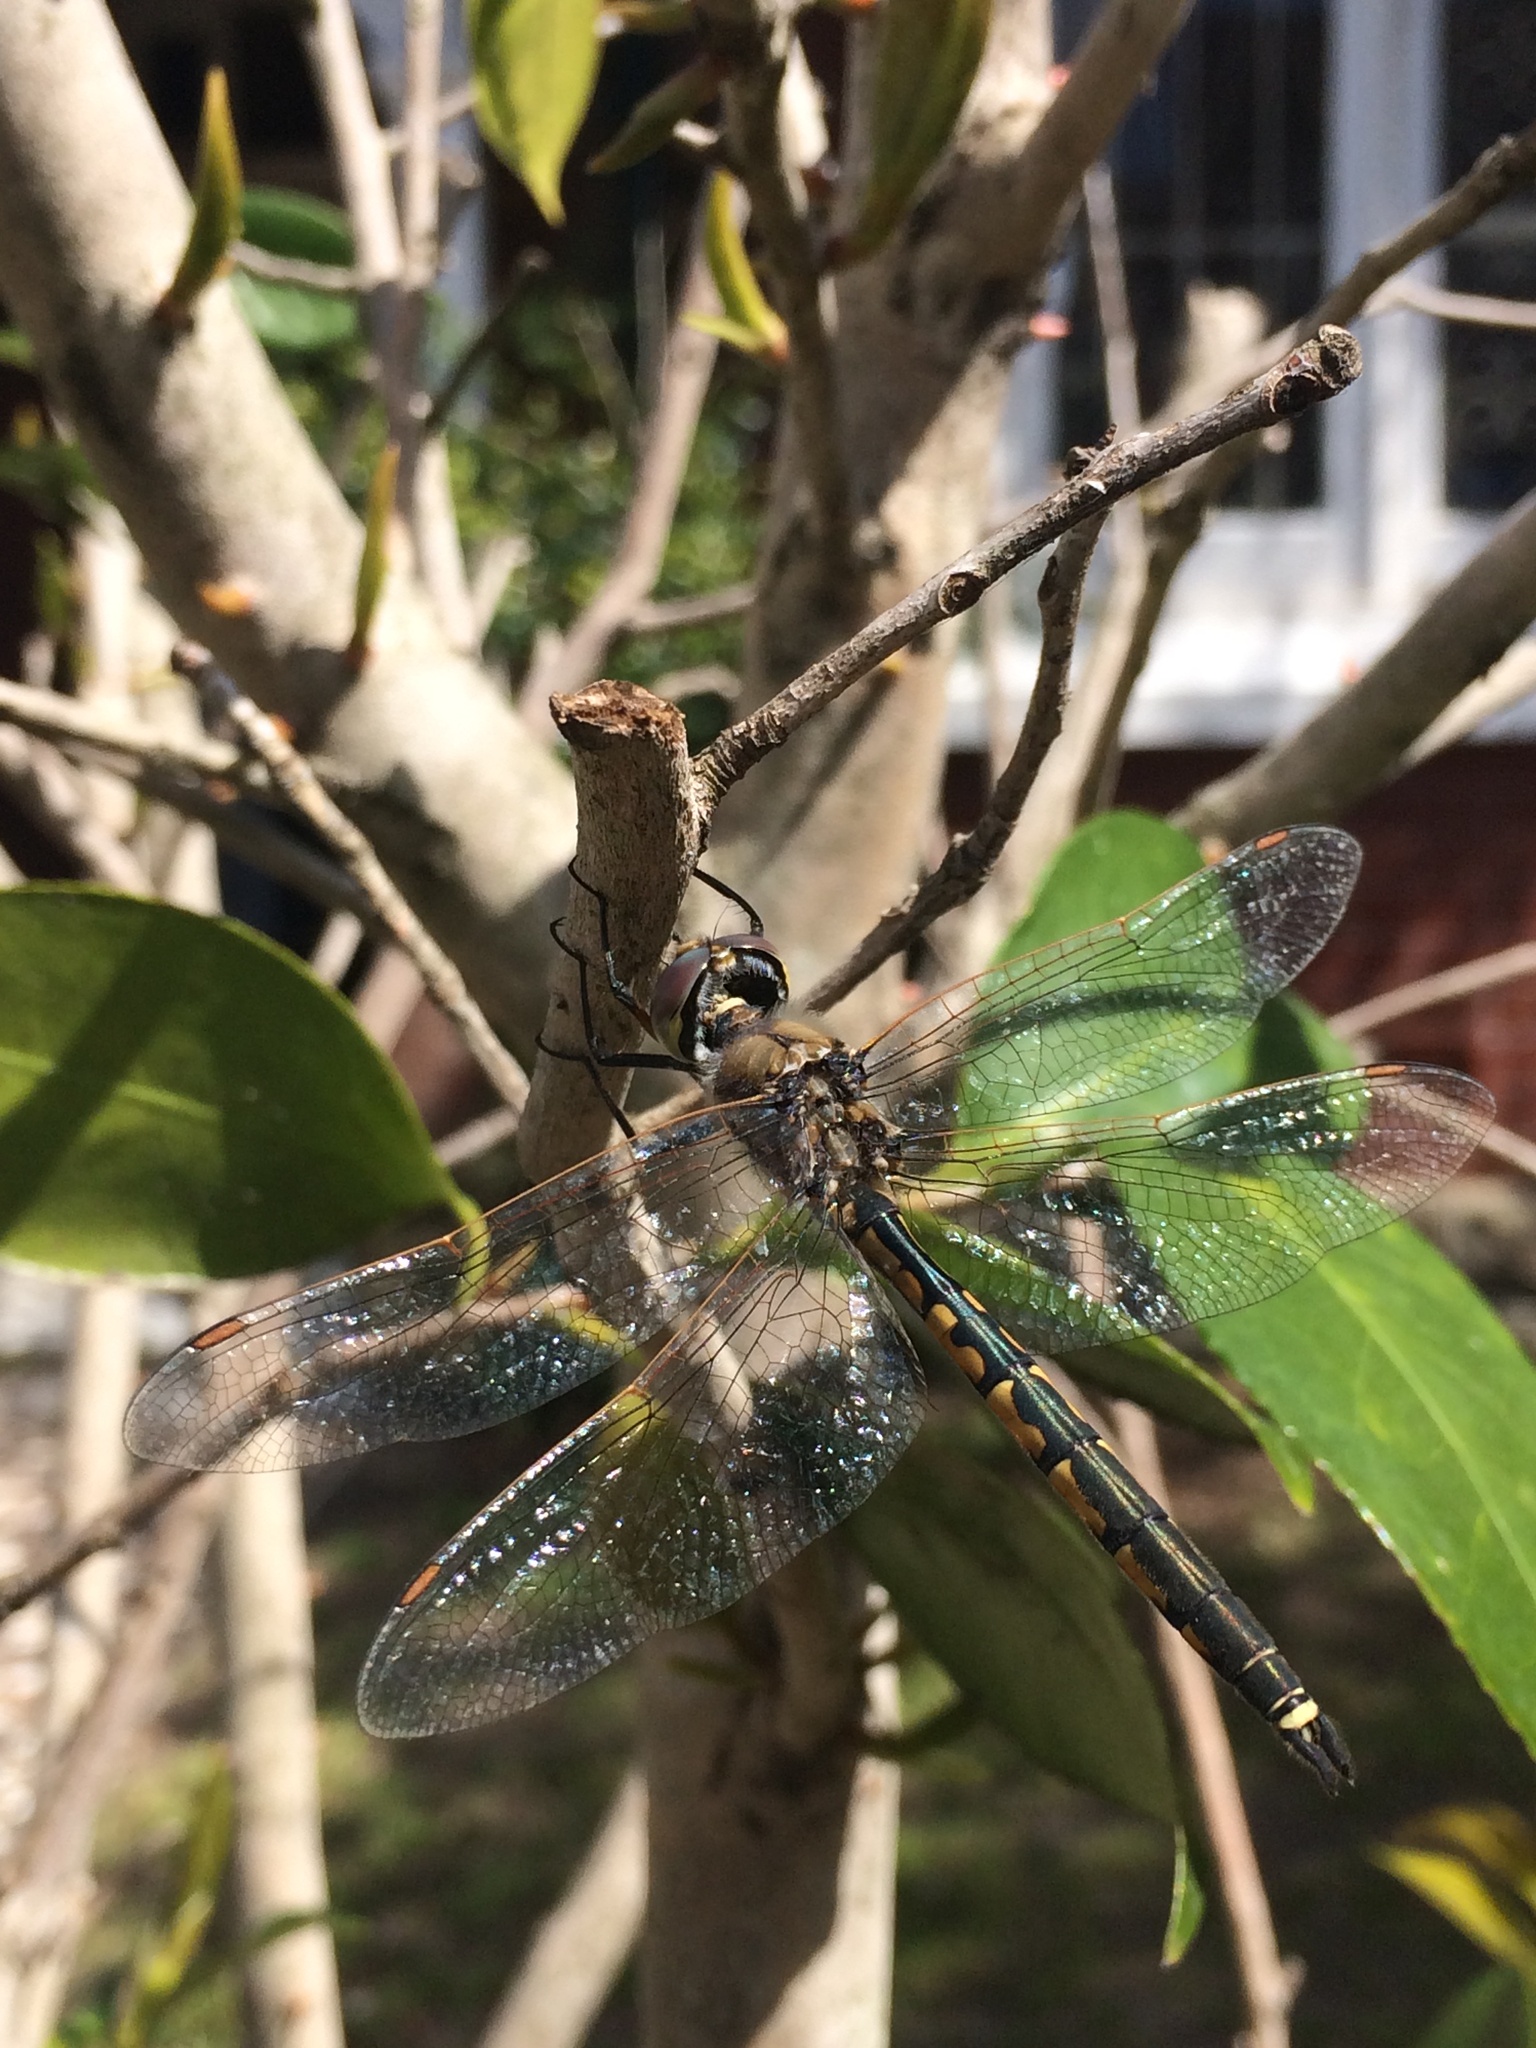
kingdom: Animalia
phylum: Arthropoda
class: Insecta
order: Odonata
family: Corduliidae
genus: Hemicordulia
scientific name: Hemicordulia tau
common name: Tau emerald
